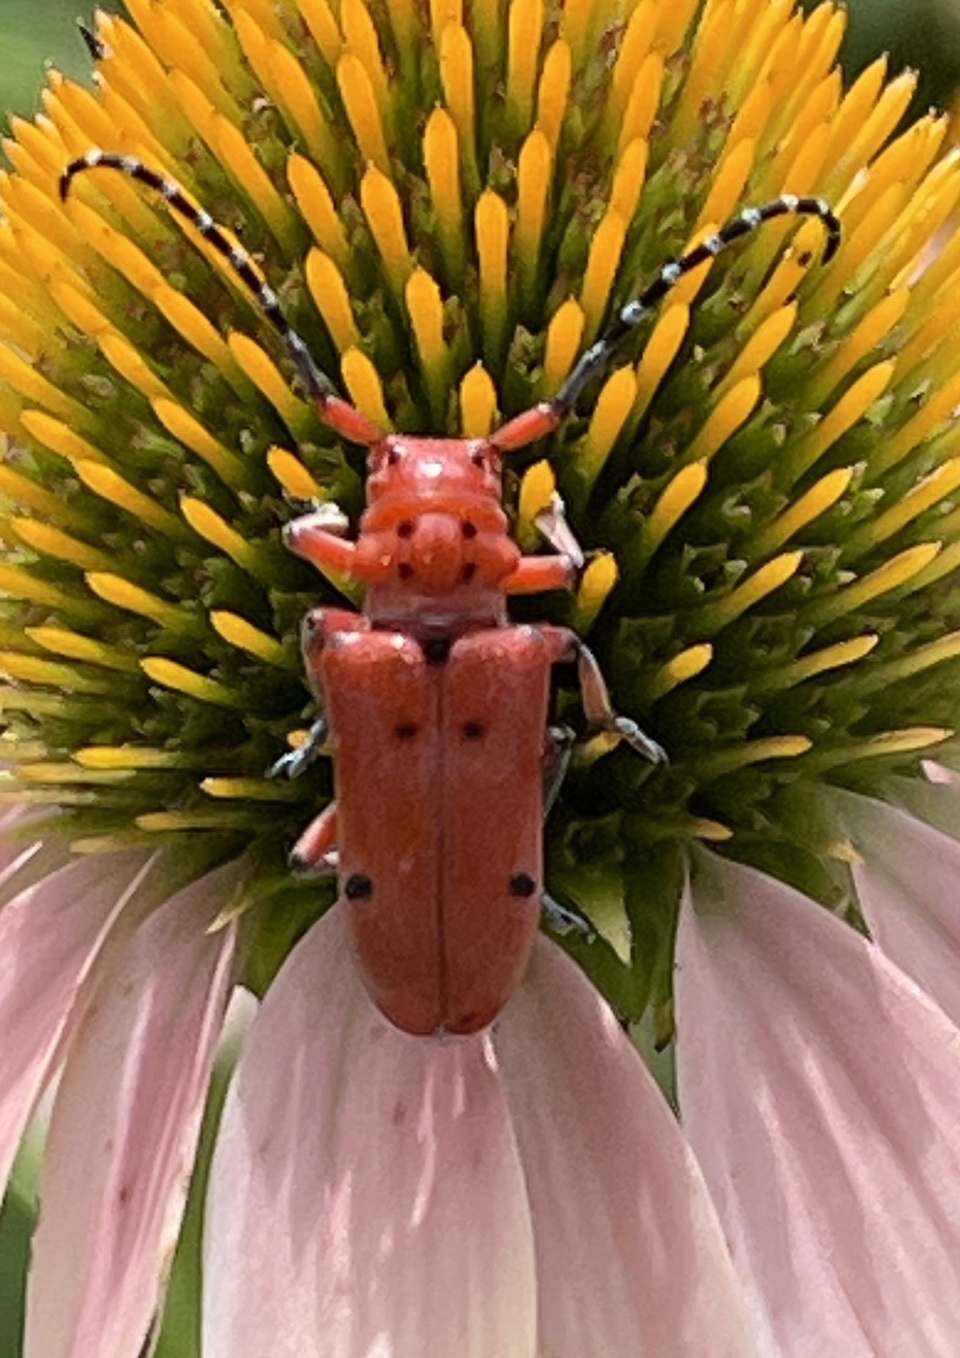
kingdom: Animalia
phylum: Arthropoda
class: Insecta
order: Coleoptera
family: Cerambycidae
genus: Tetraopes
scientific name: Tetraopes femoratus
